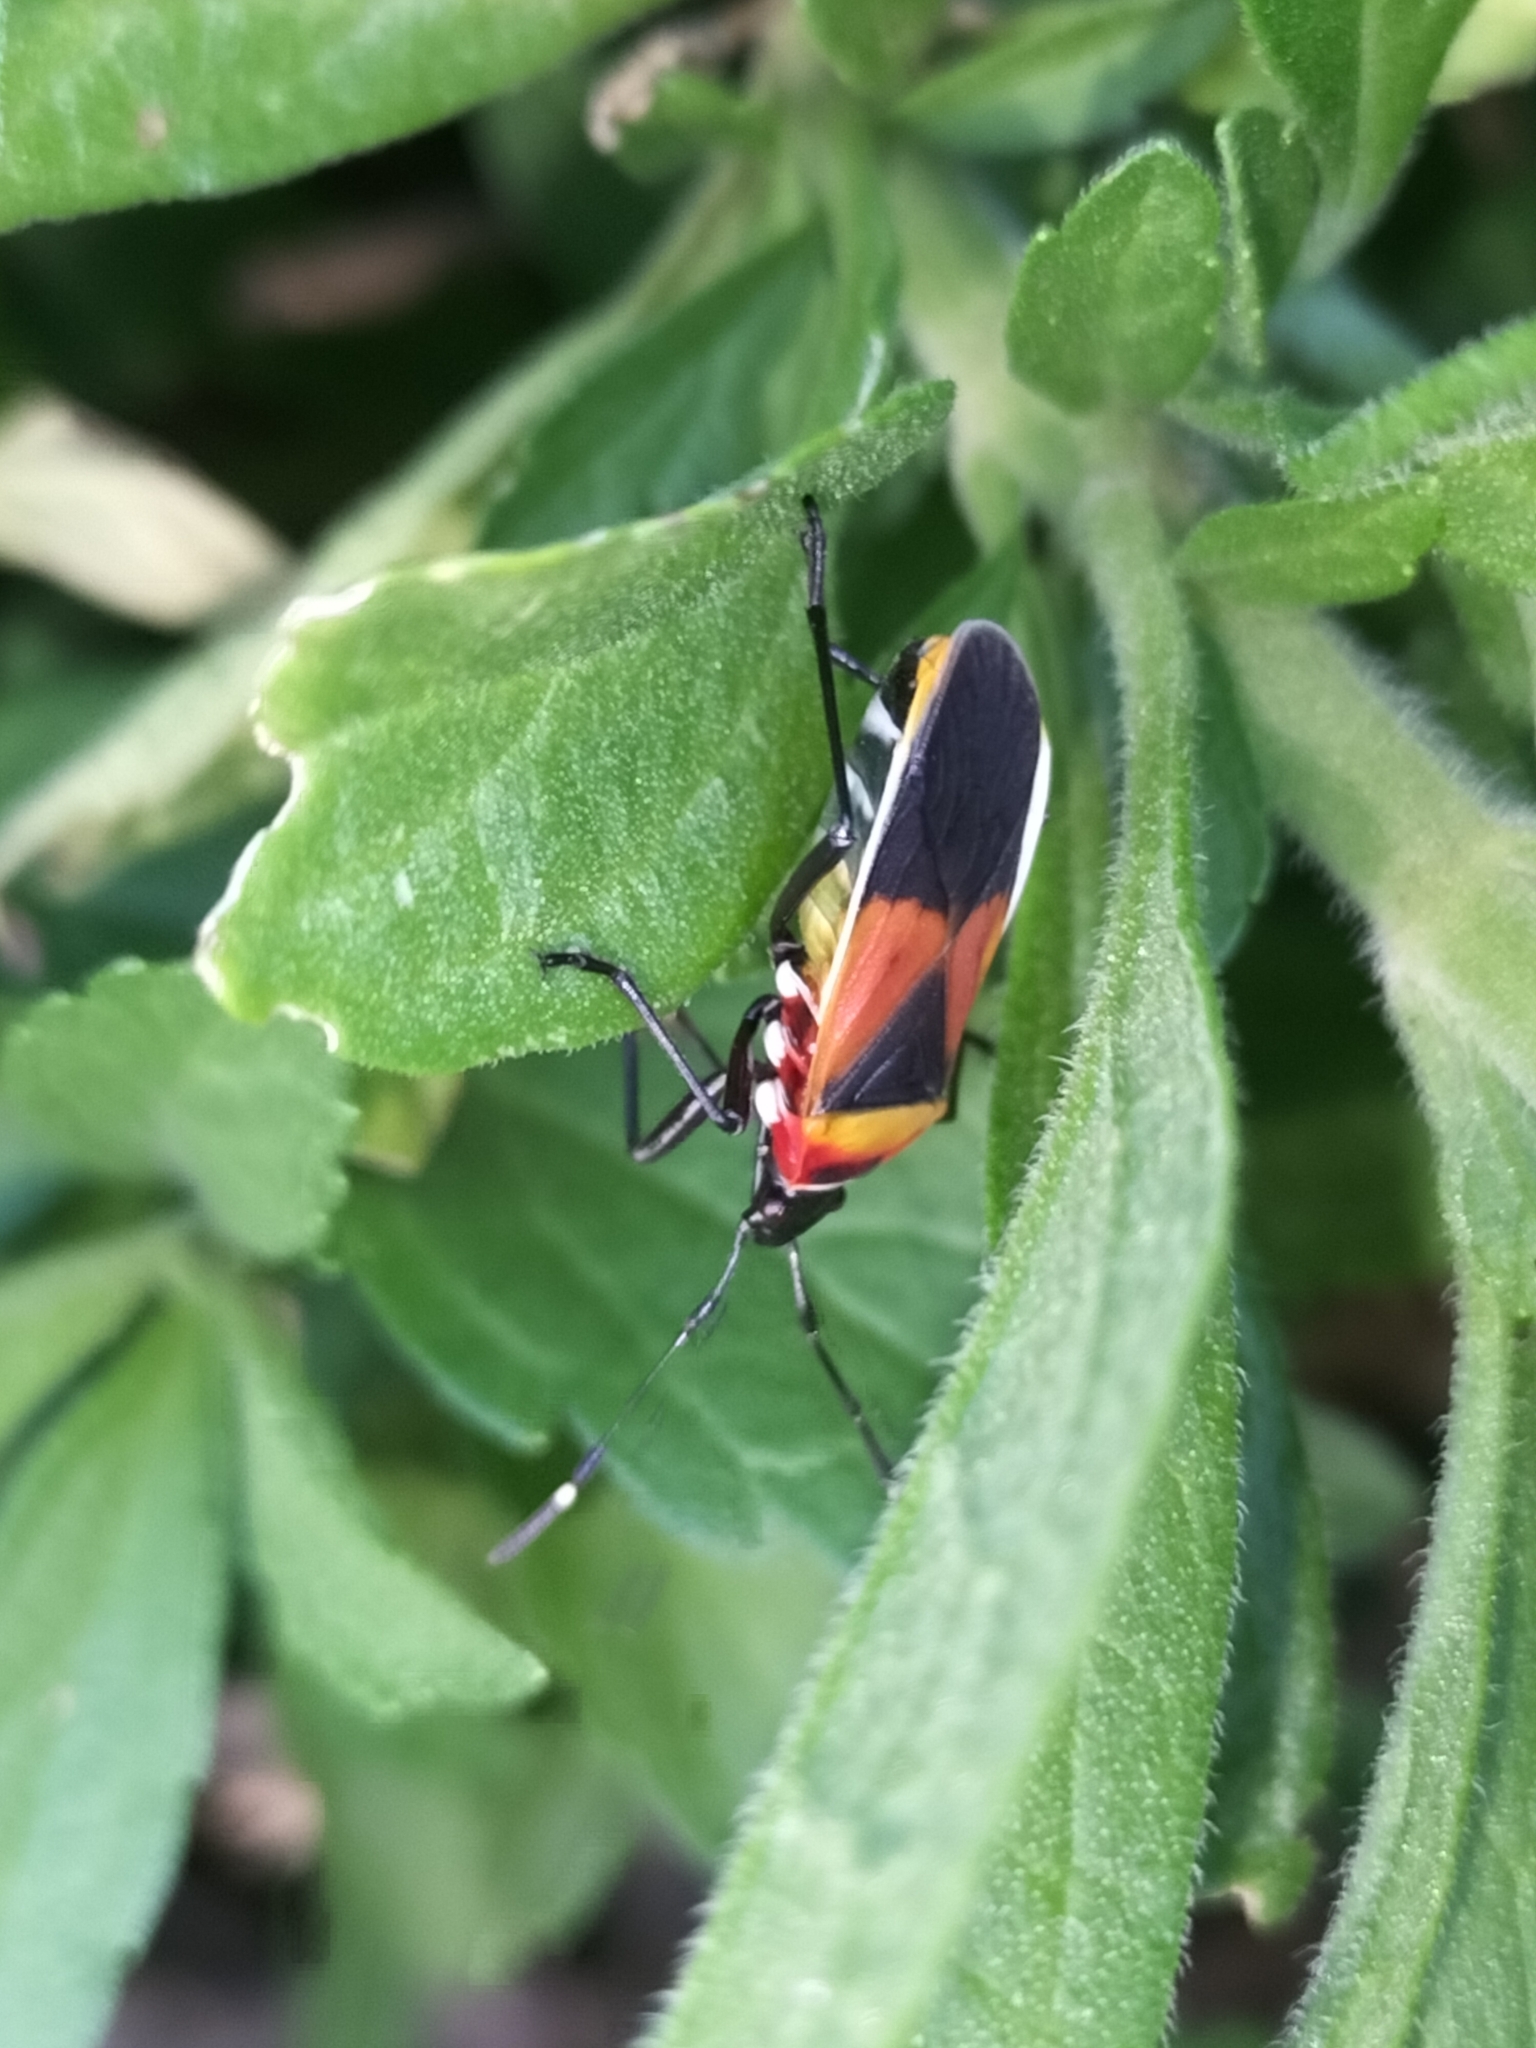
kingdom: Animalia
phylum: Arthropoda
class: Insecta
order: Hemiptera
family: Pyrrhocoridae
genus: Dindymus
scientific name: Dindymus
